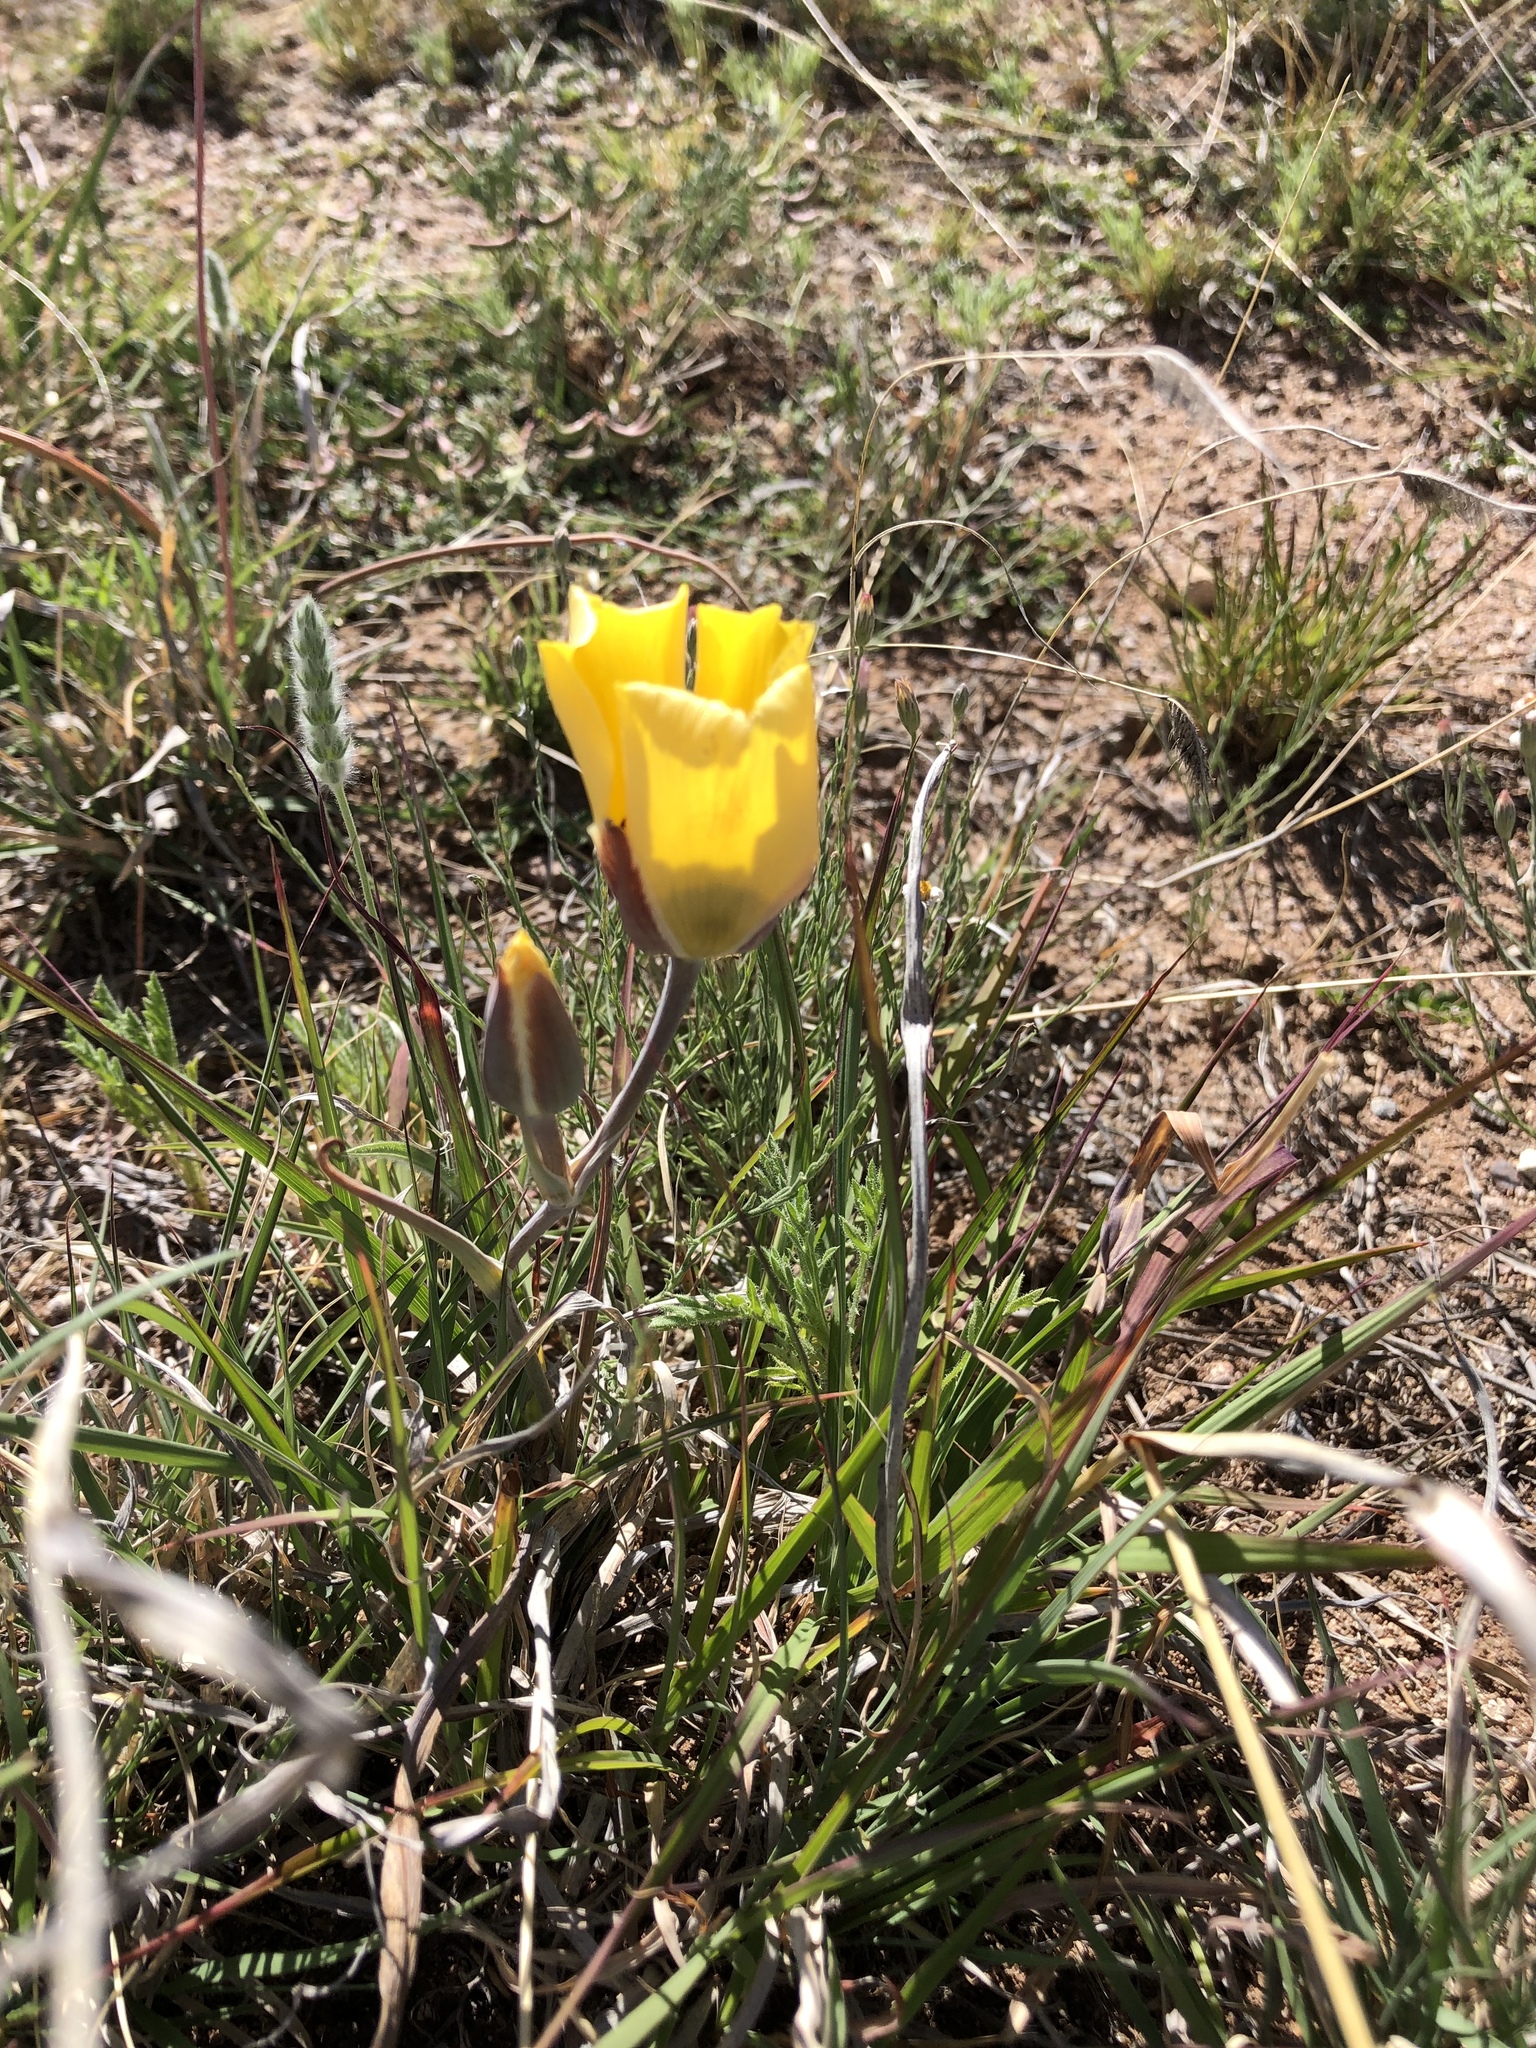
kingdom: Plantae
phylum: Tracheophyta
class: Liliopsida
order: Liliales
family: Liliaceae
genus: Calochortus
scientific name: Calochortus kennedyi
